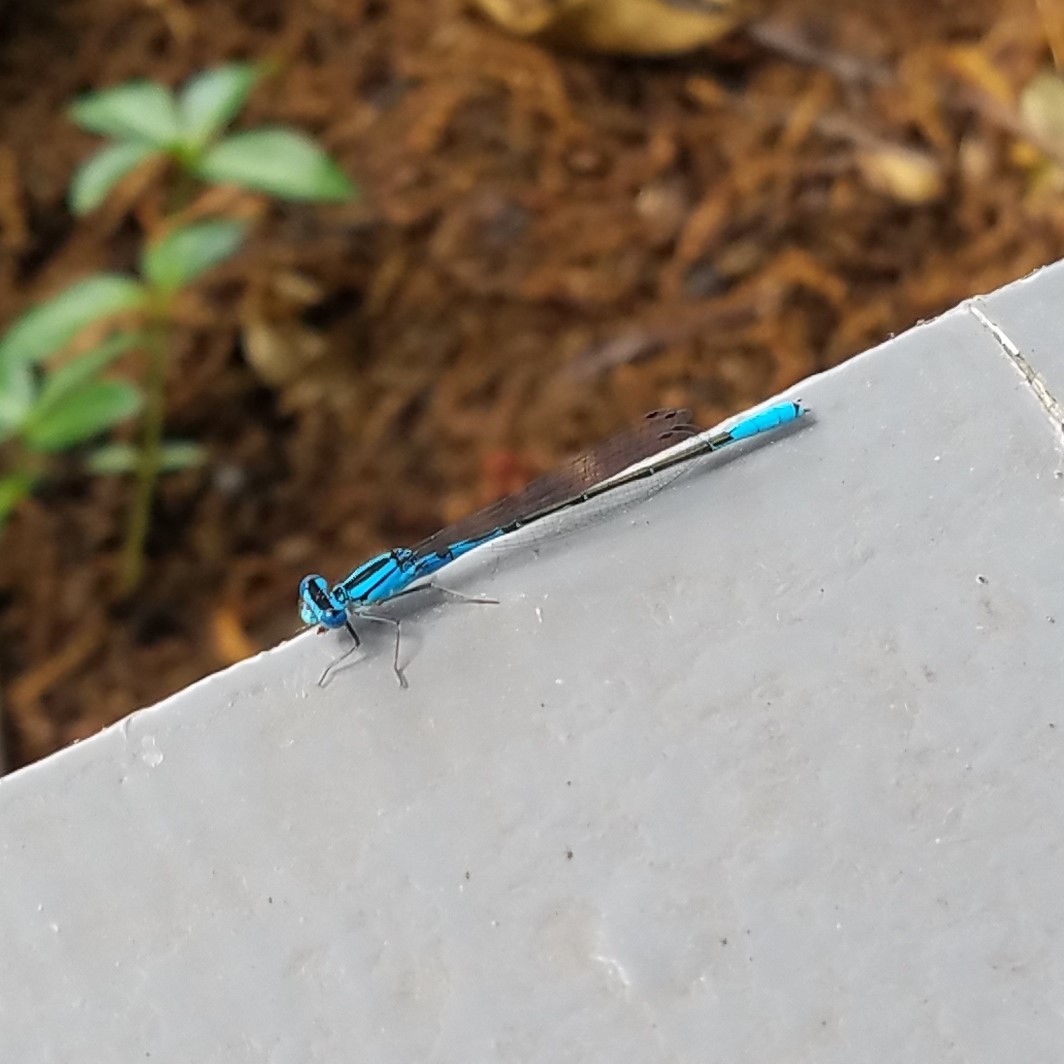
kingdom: Animalia
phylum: Arthropoda
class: Insecta
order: Odonata
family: Coenagrionidae
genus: Enallagma
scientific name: Enallagma aspersum
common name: Azure bluet
